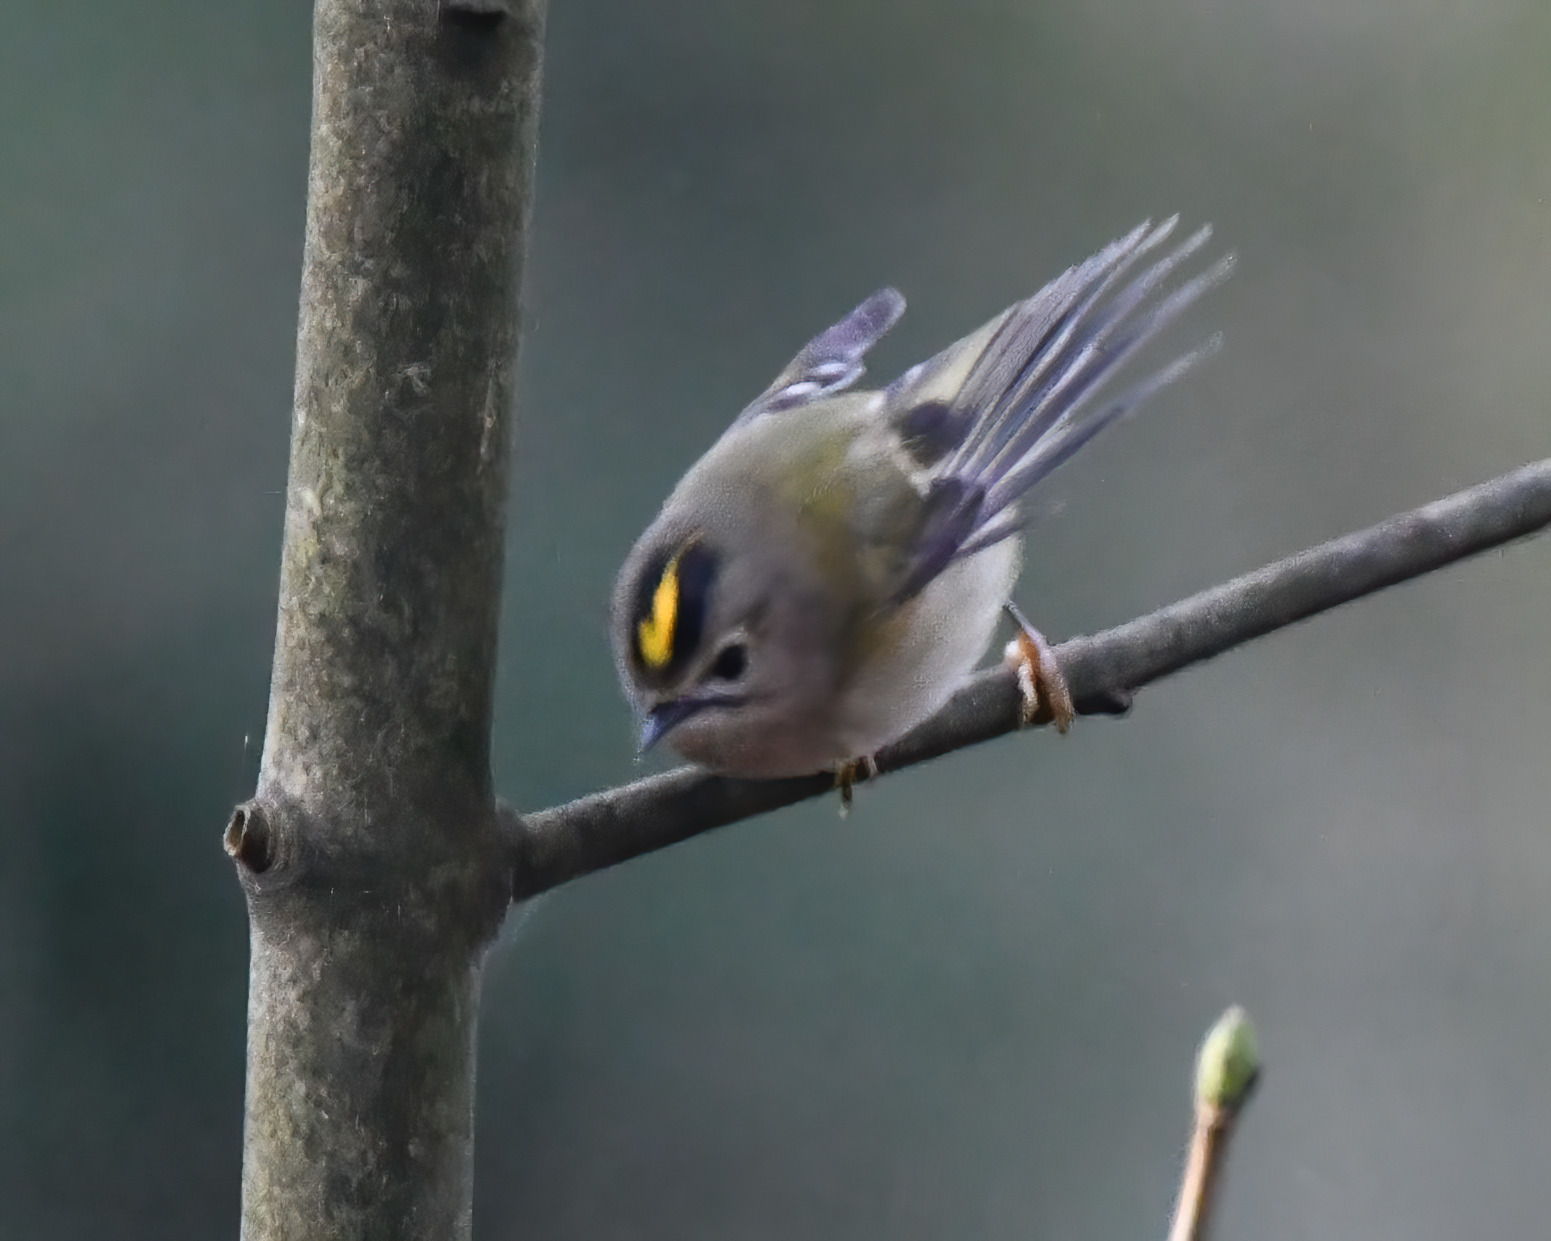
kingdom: Animalia
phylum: Chordata
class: Aves
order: Passeriformes
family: Regulidae
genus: Regulus
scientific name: Regulus regulus
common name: Goldcrest
